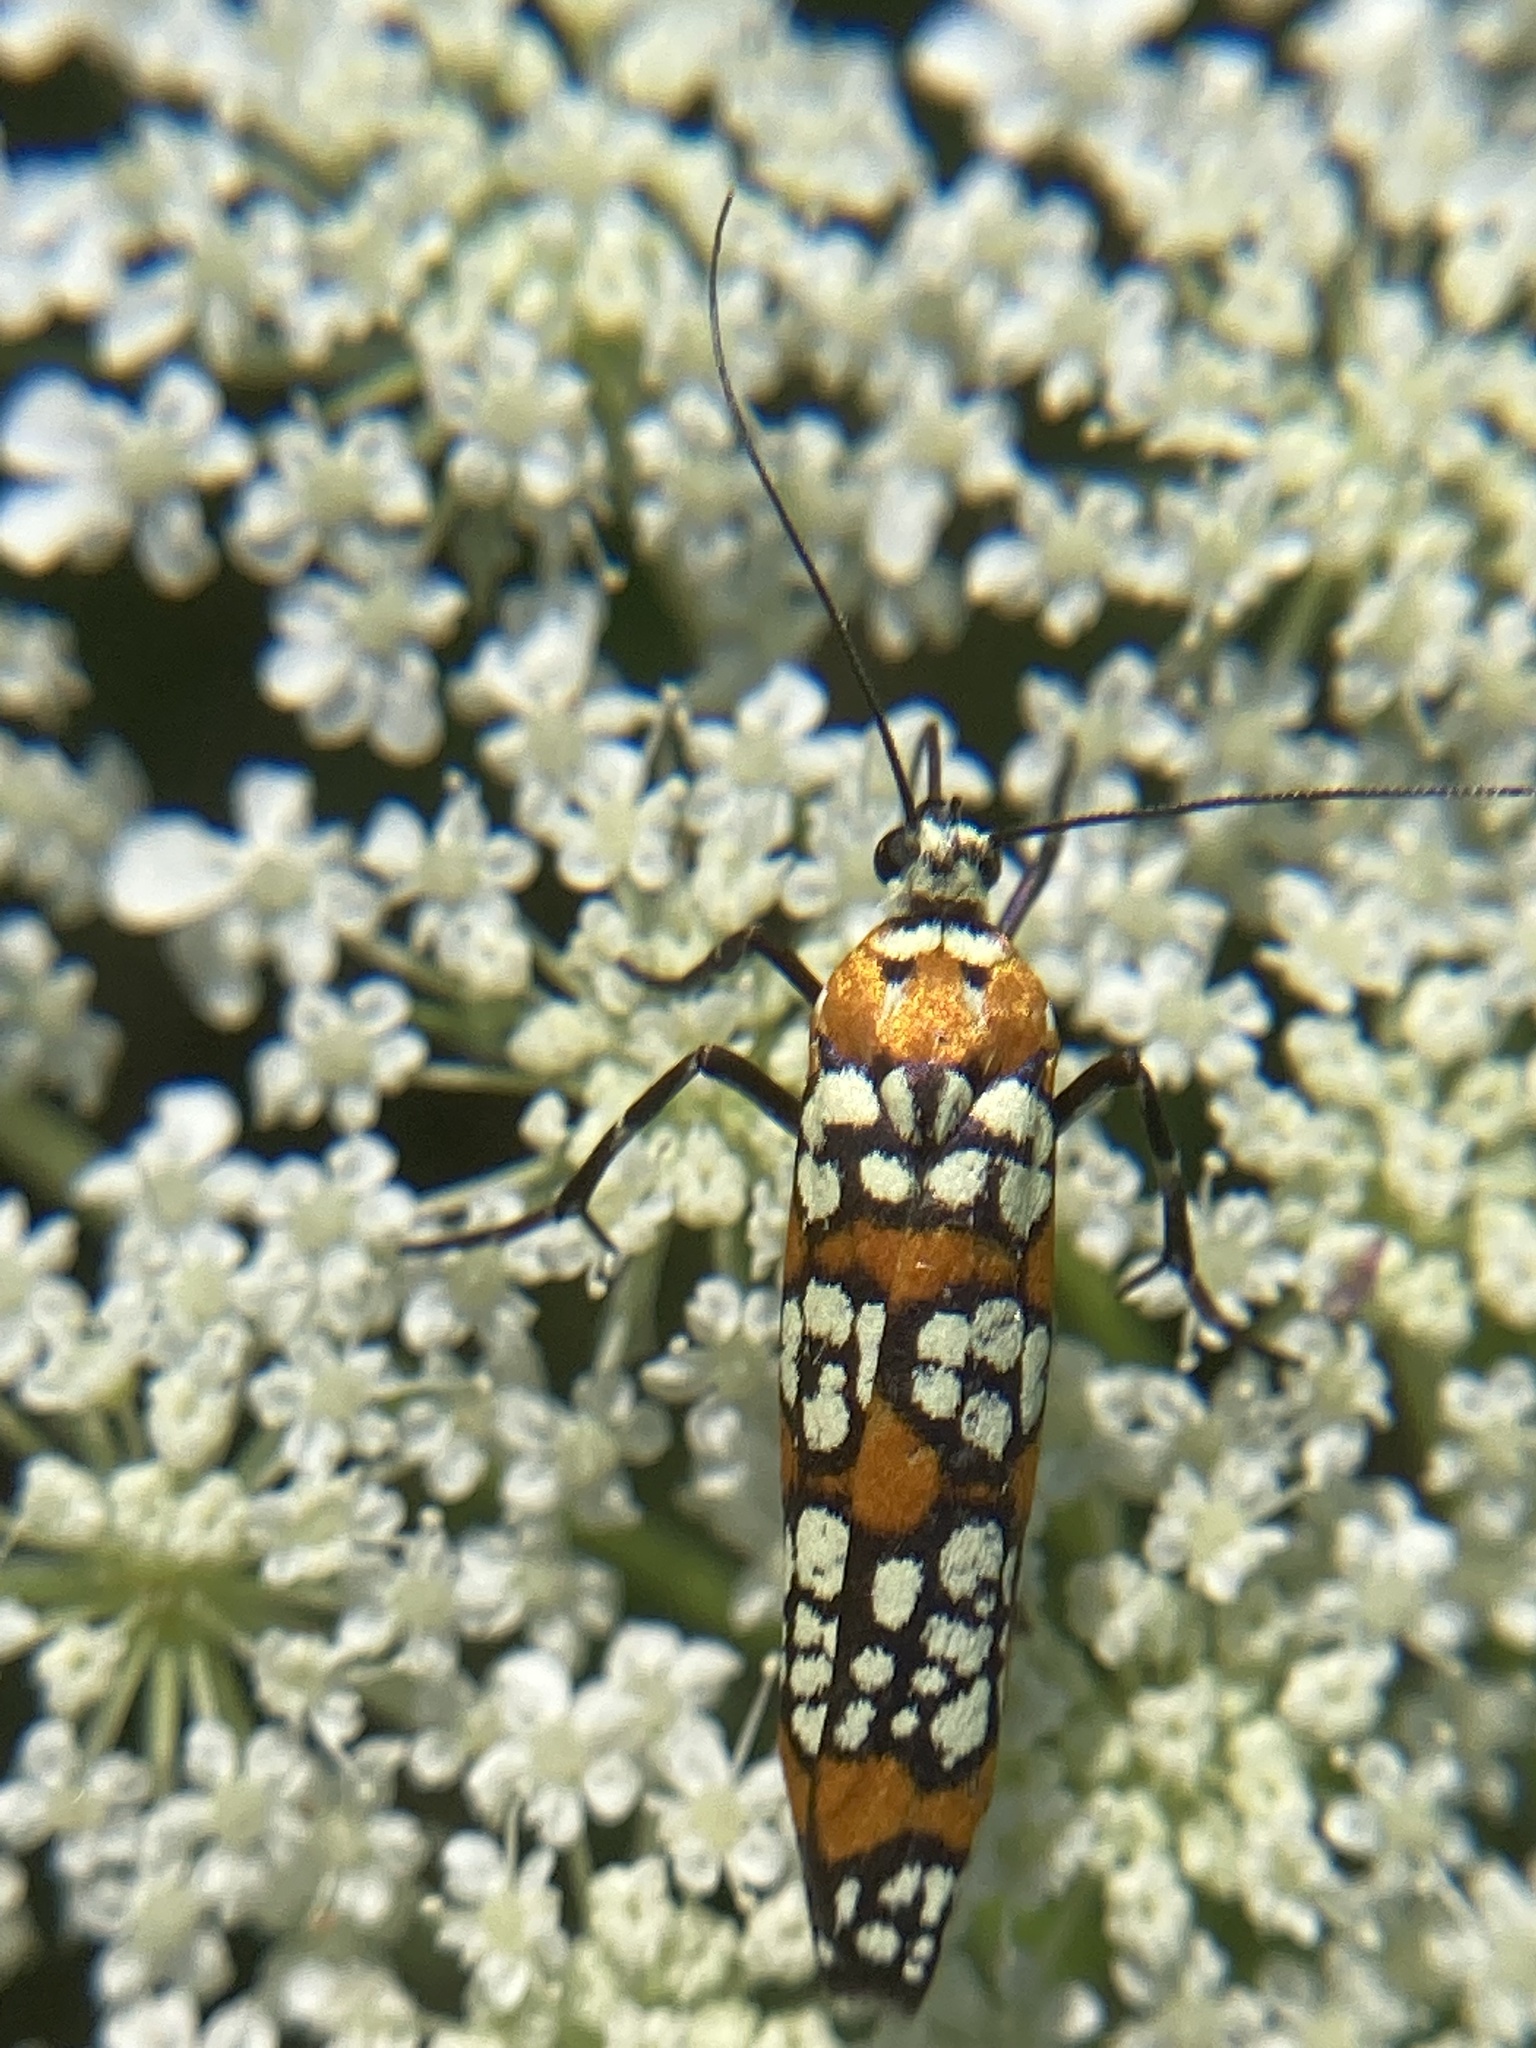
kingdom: Animalia
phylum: Arthropoda
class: Insecta
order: Lepidoptera
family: Attevidae
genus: Atteva
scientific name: Atteva punctella
